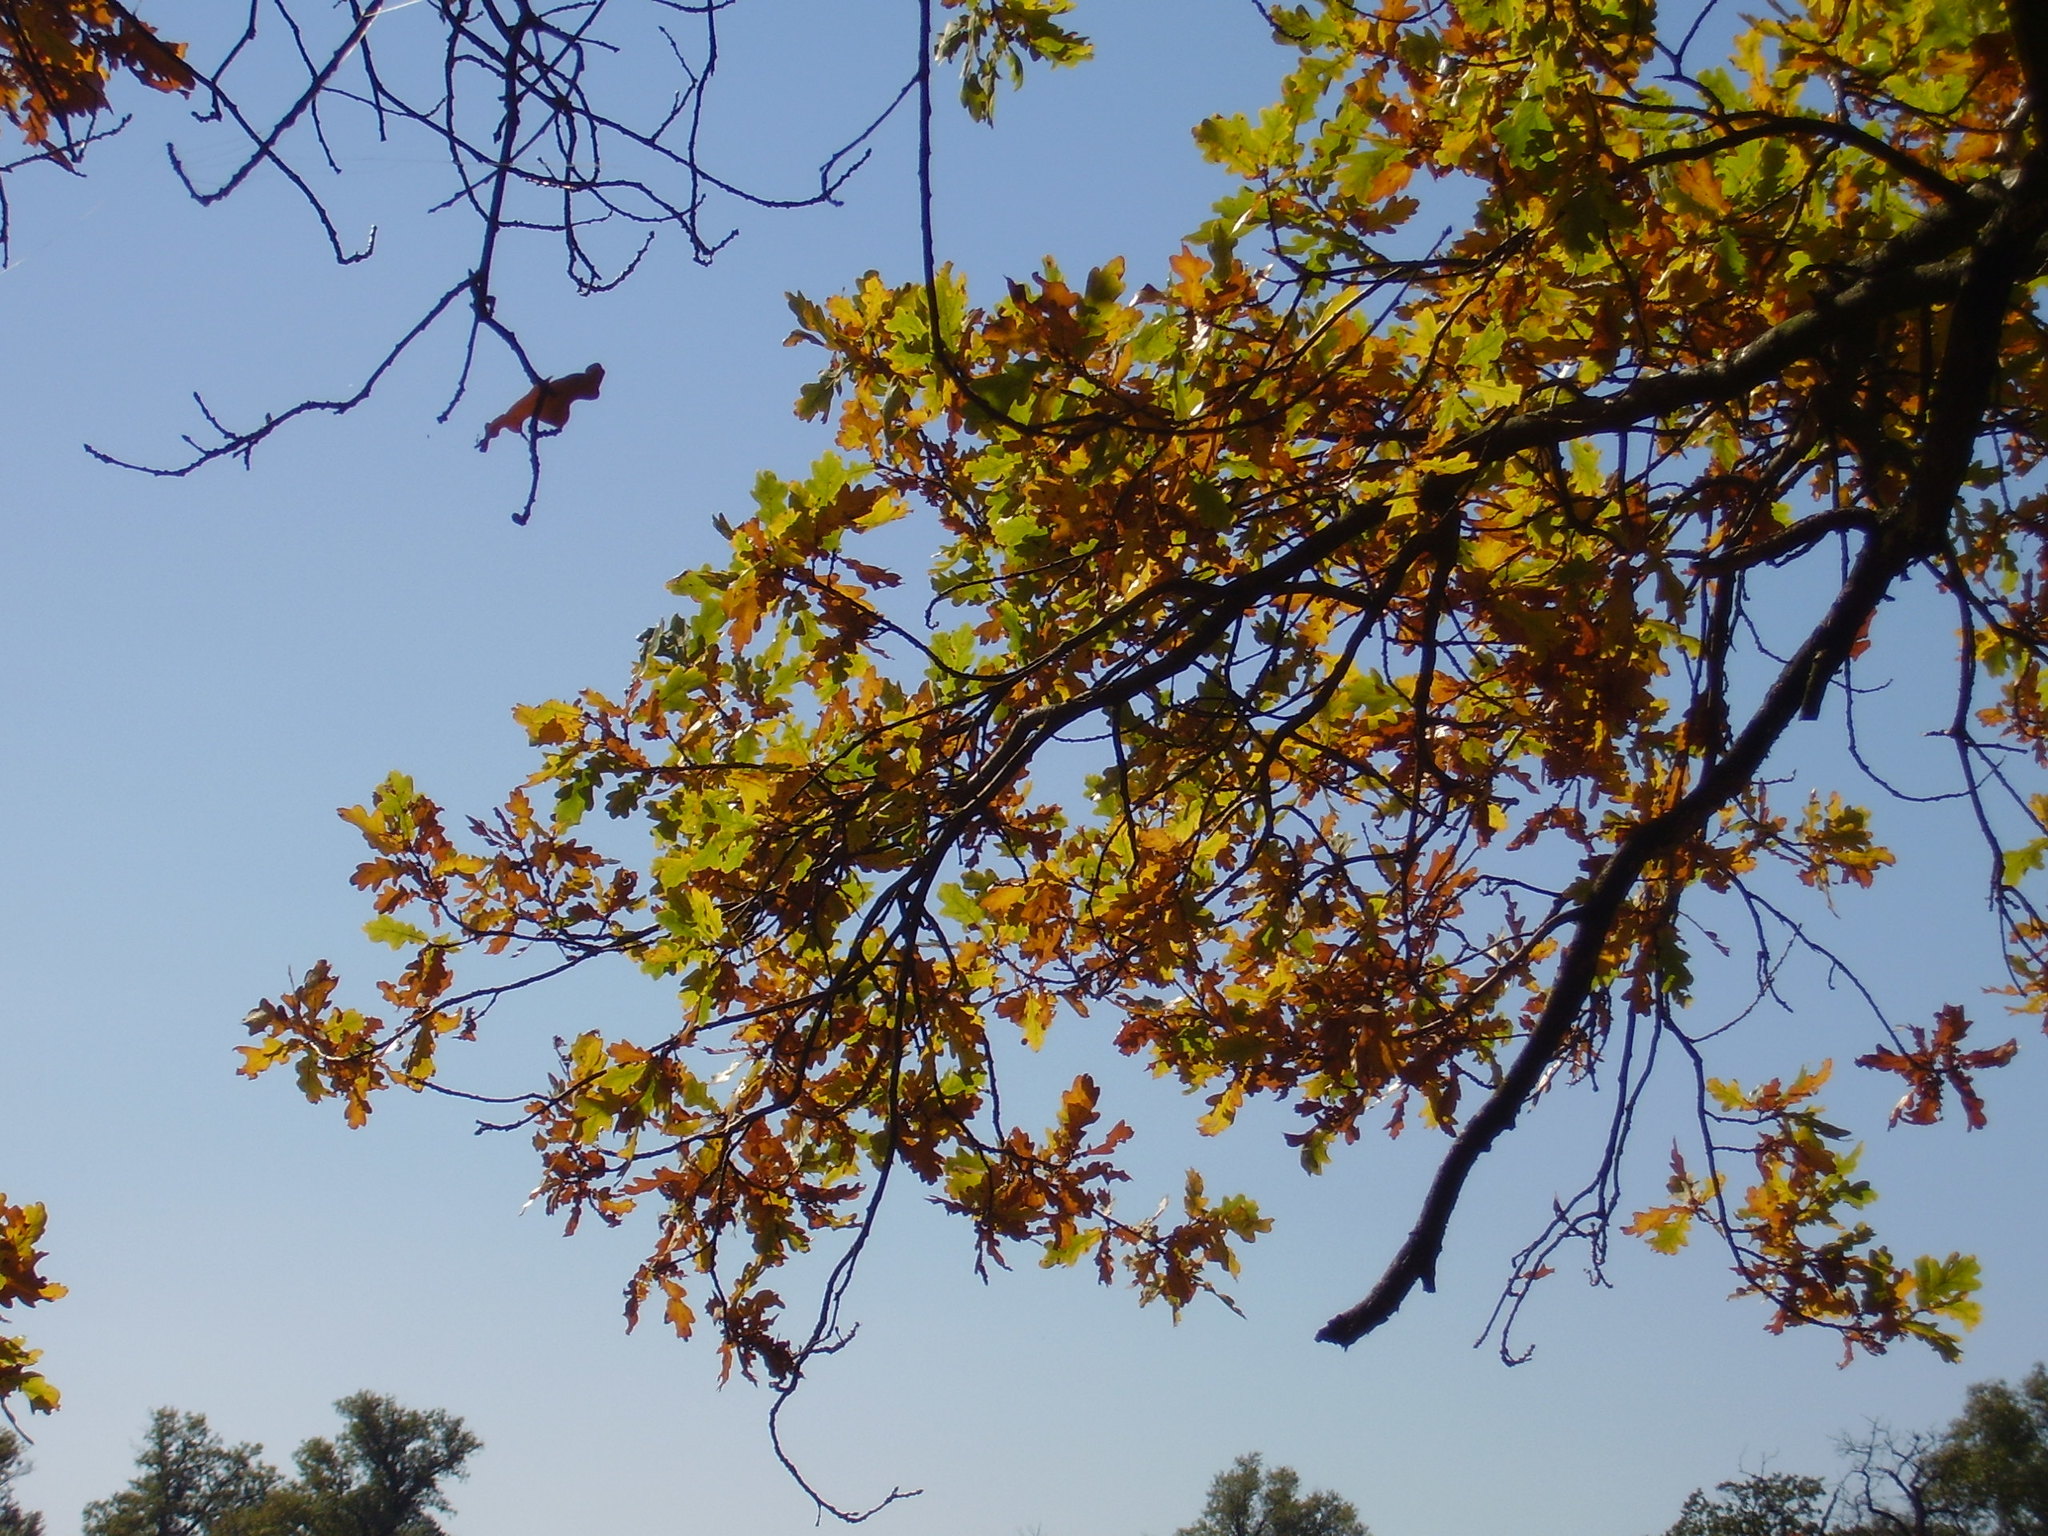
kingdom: Plantae
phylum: Tracheophyta
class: Magnoliopsida
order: Fagales
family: Fagaceae
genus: Quercus
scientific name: Quercus robur
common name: Pedunculate oak
